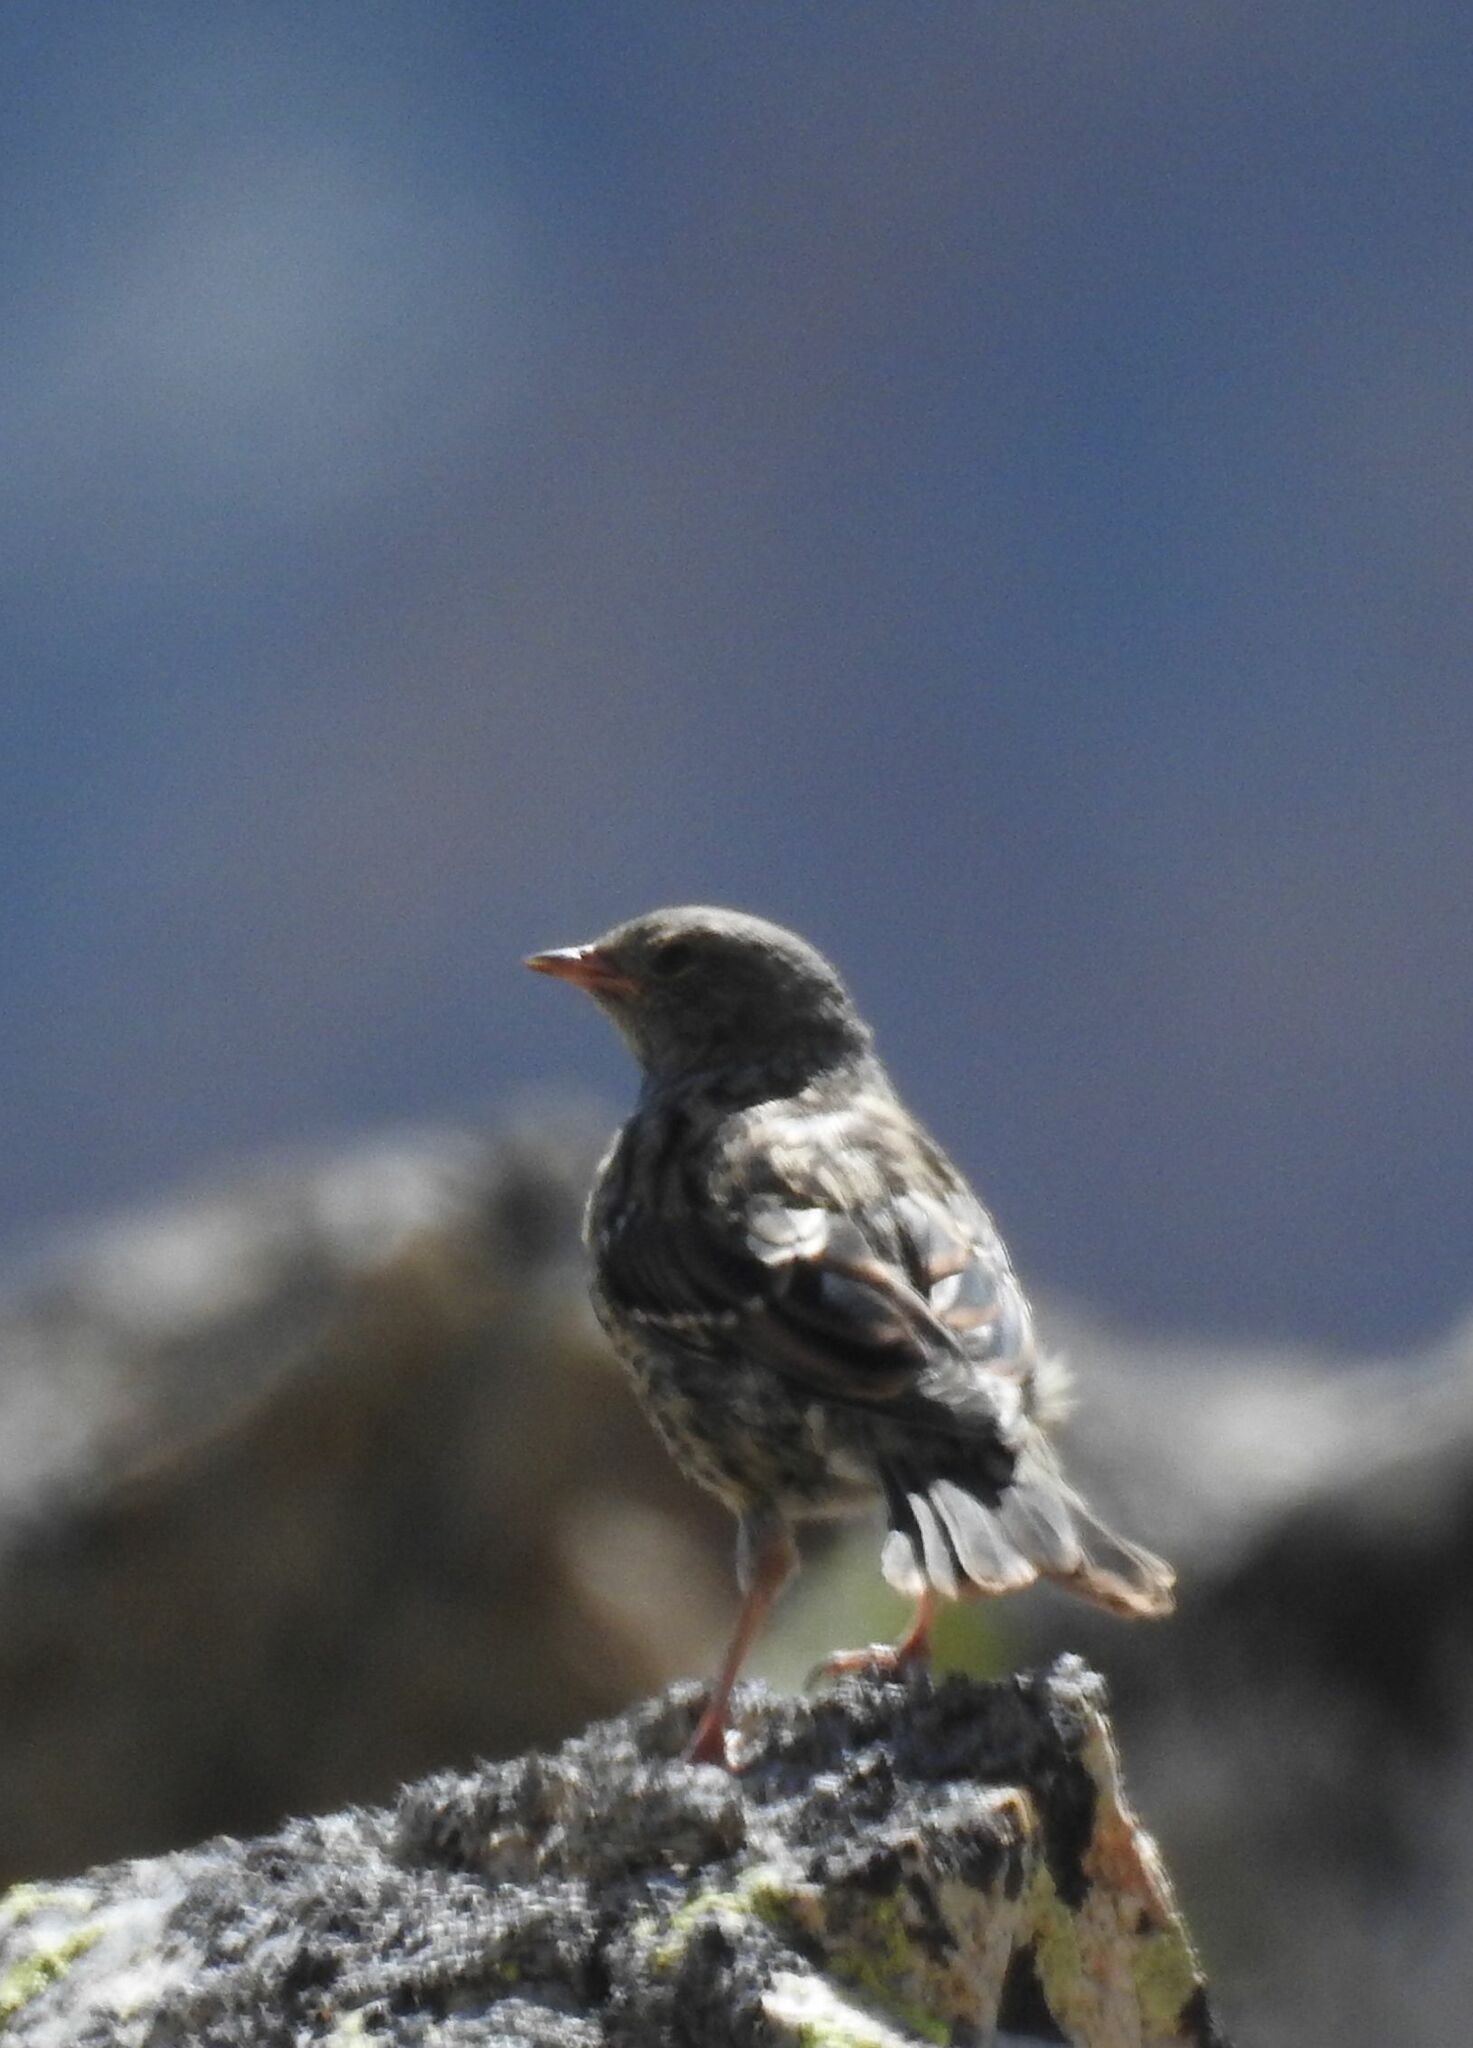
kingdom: Animalia
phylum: Chordata
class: Aves
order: Passeriformes
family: Prunellidae
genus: Prunella
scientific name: Prunella collaris
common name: Alpine accentor
